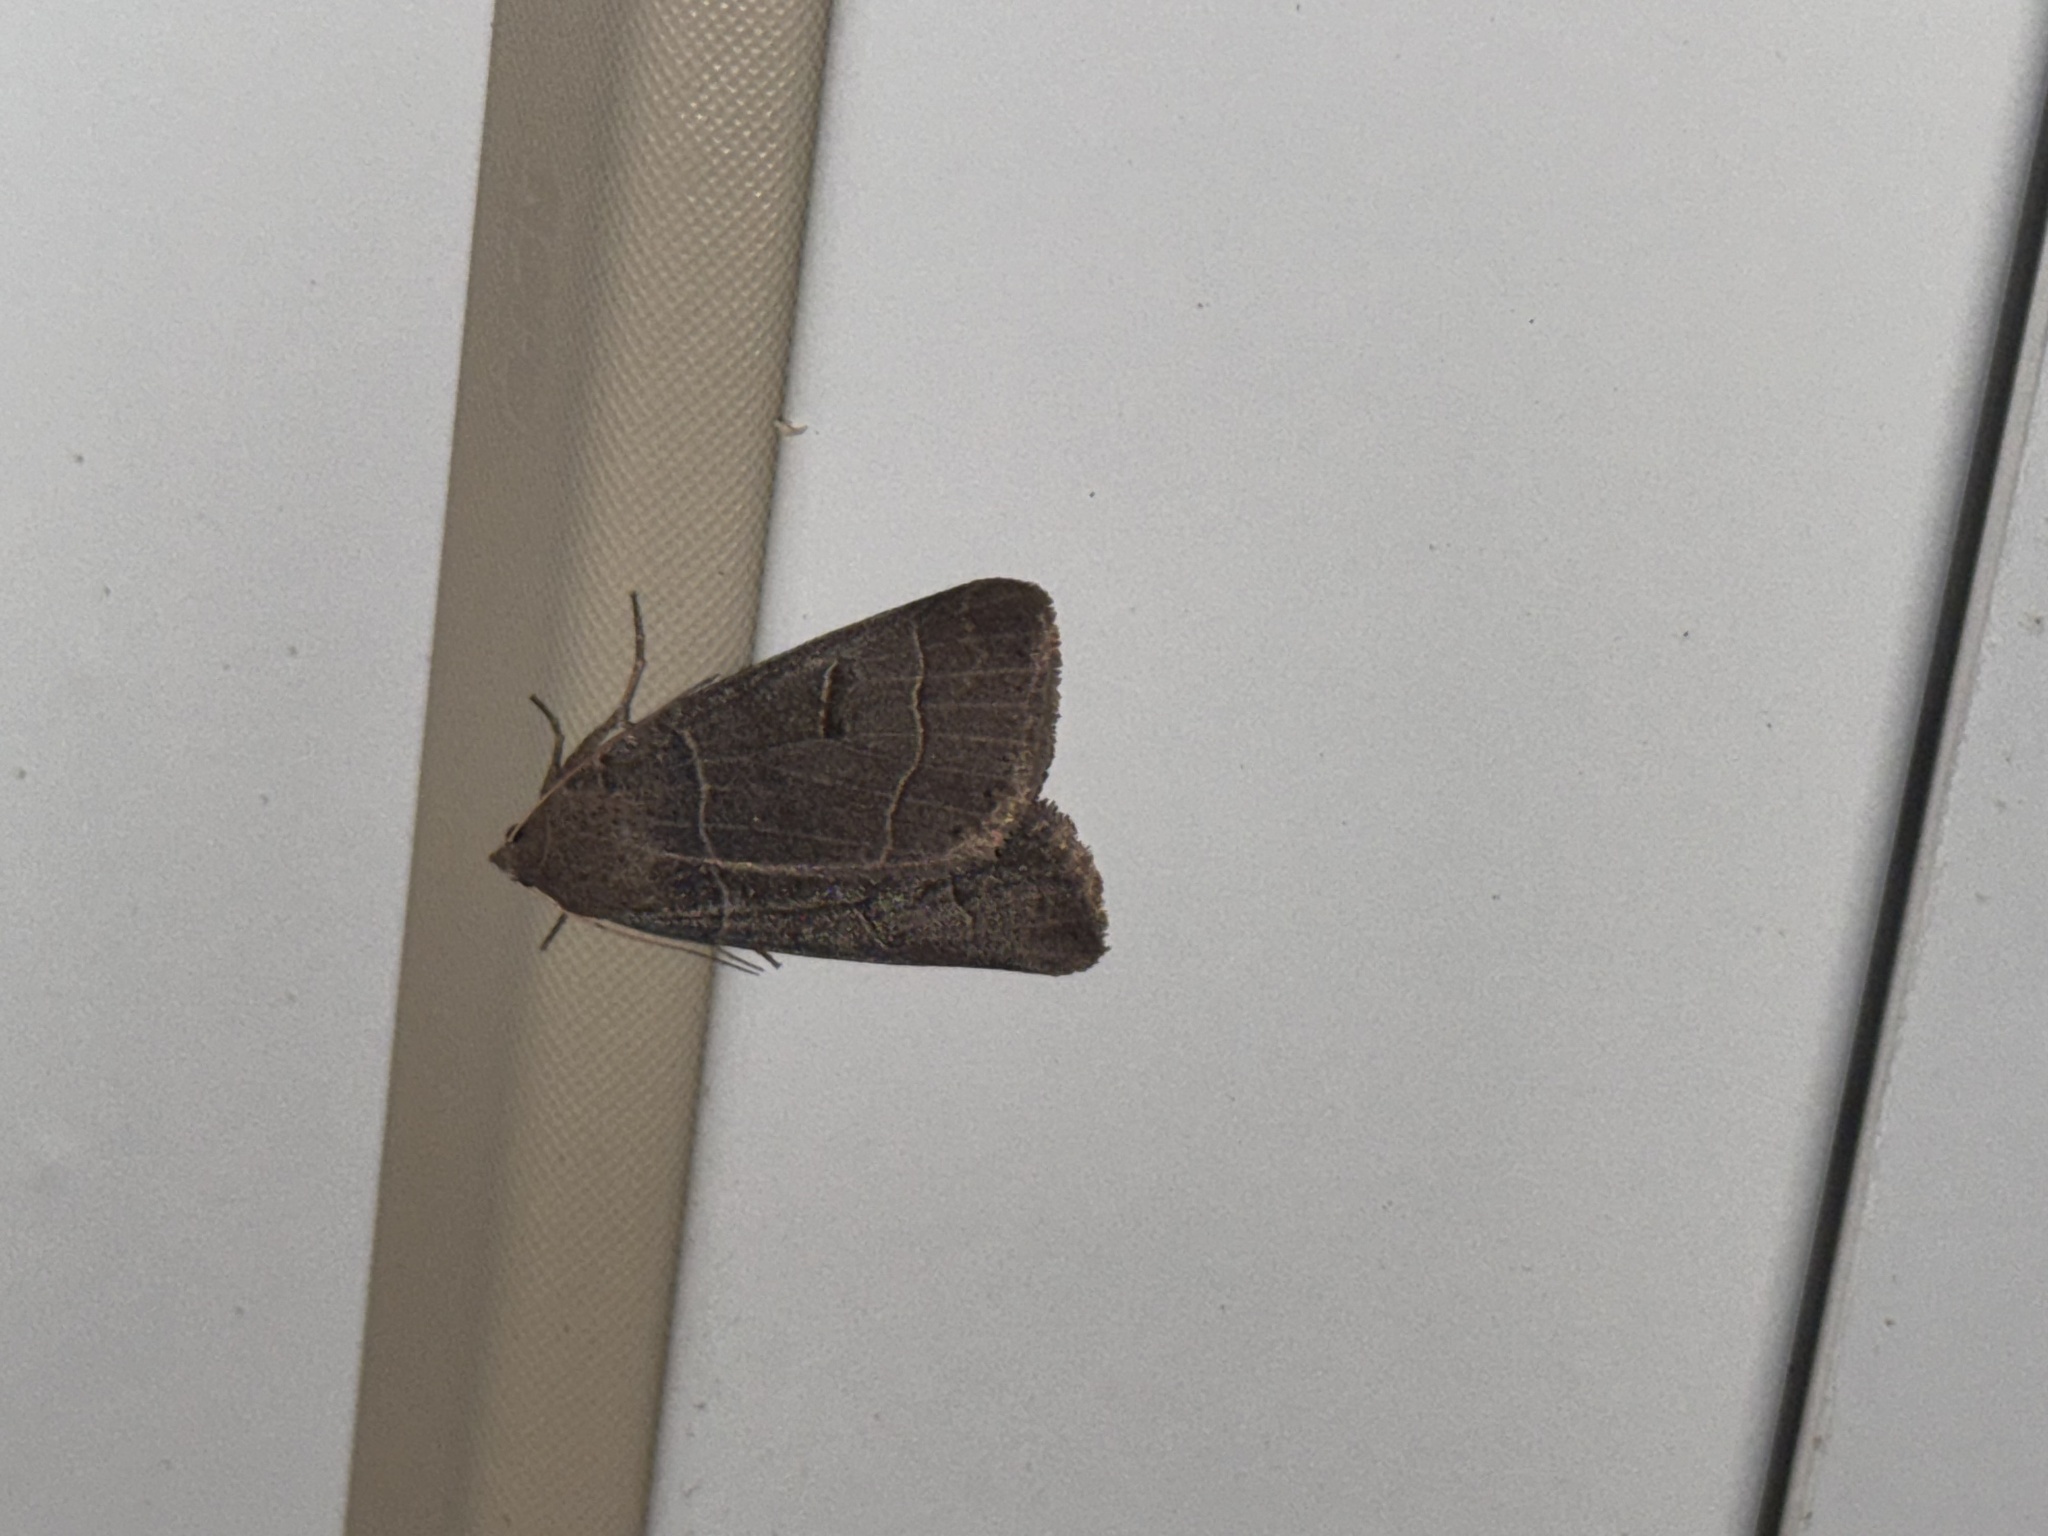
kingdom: Animalia
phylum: Arthropoda
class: Insecta
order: Lepidoptera
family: Erebidae
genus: Phoberia
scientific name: Phoberia atomaris
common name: Common oak moth
